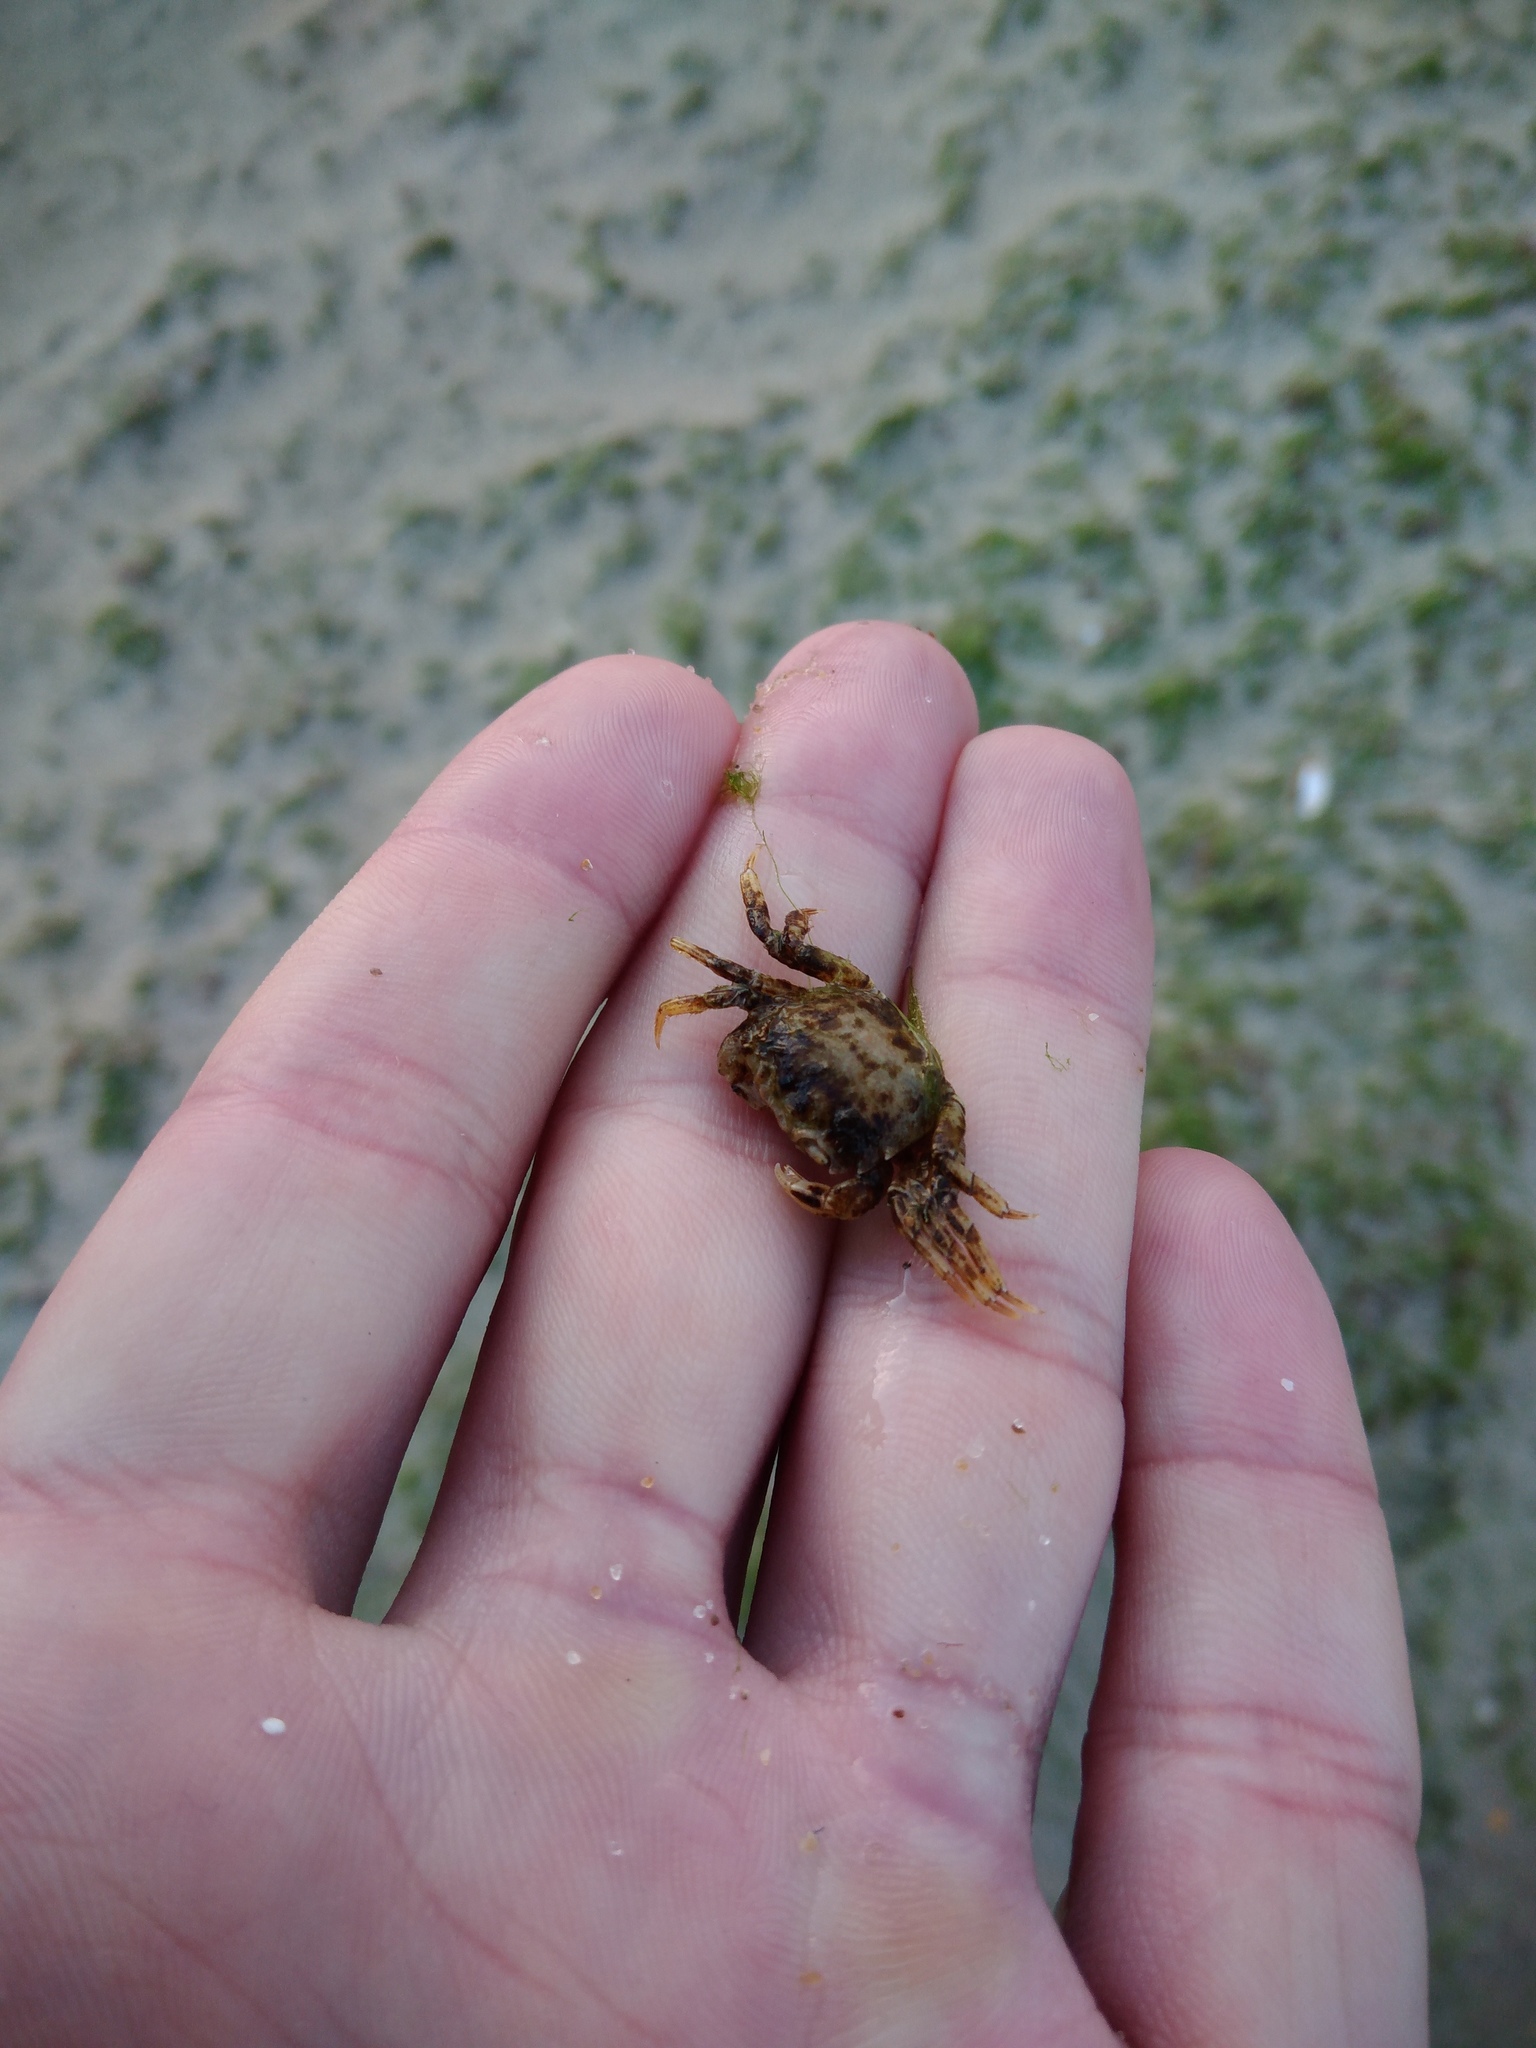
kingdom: Animalia
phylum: Arthropoda
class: Malacostraca
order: Decapoda
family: Varunidae
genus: Brachynotus
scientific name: Brachynotus sexdentatus
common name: Mediterranean crab
